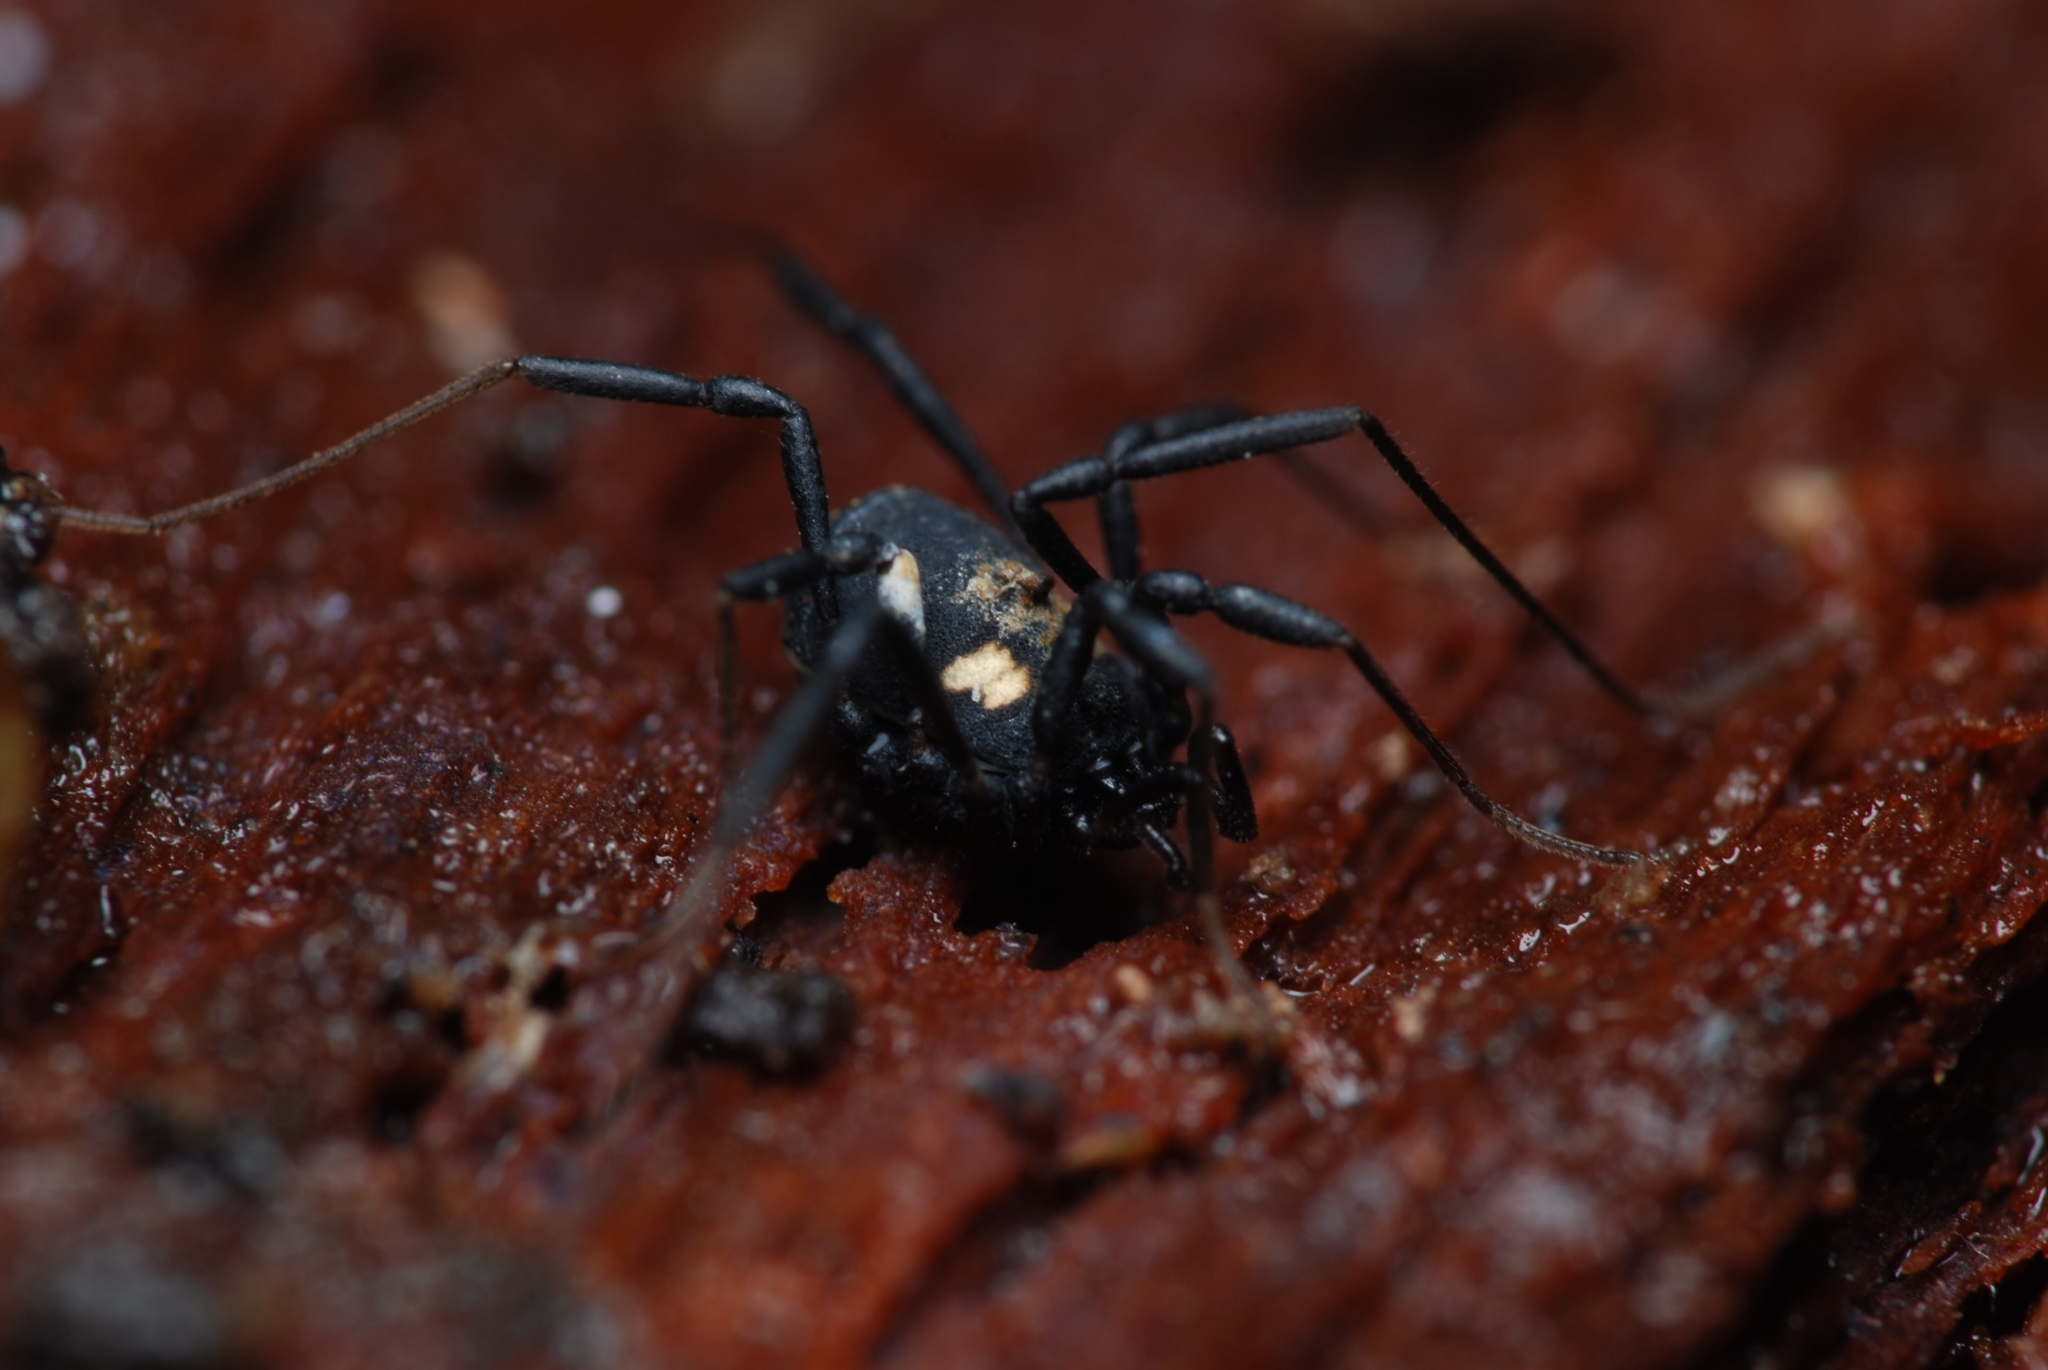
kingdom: Animalia
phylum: Arthropoda
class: Arachnida
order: Opiliones
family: Nemastomatidae
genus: Nemastoma
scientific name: Nemastoma bimaculatum
